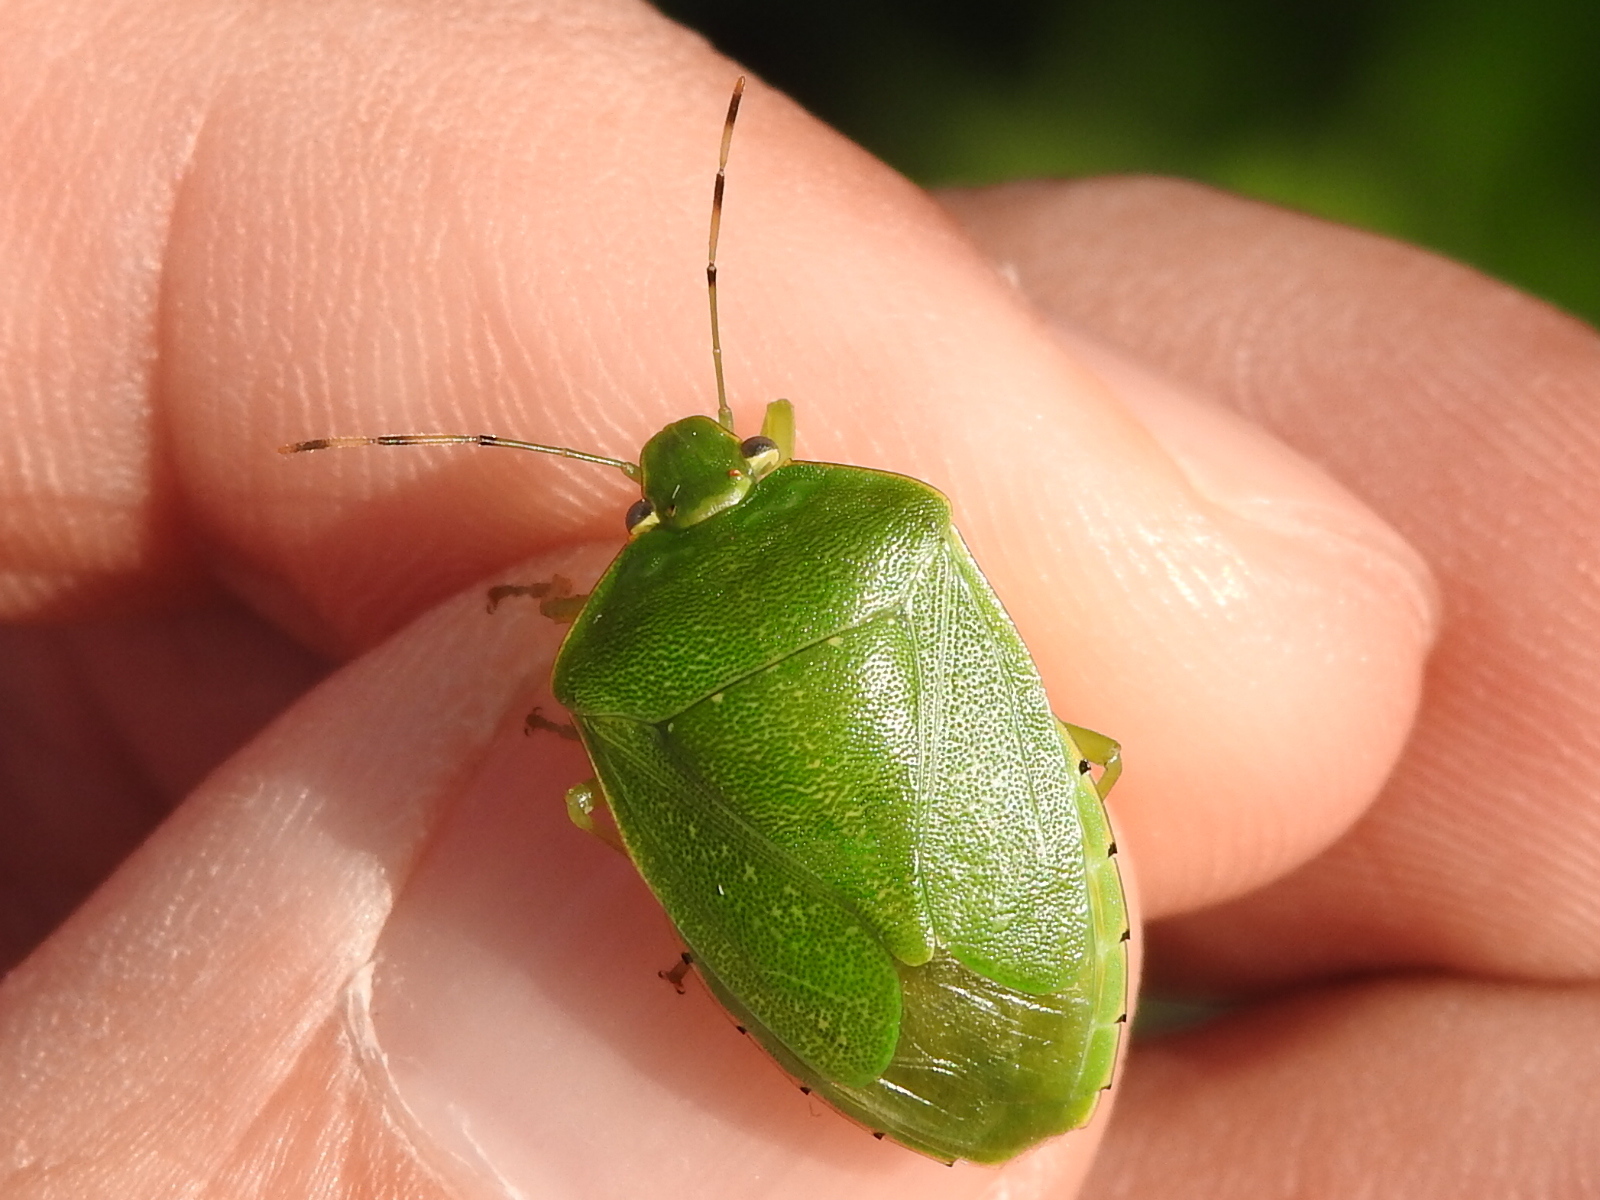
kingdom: Animalia
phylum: Arthropoda
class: Insecta
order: Hemiptera
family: Pentatomidae
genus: Chinavia
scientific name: Chinavia hilaris
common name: Green stink bug
